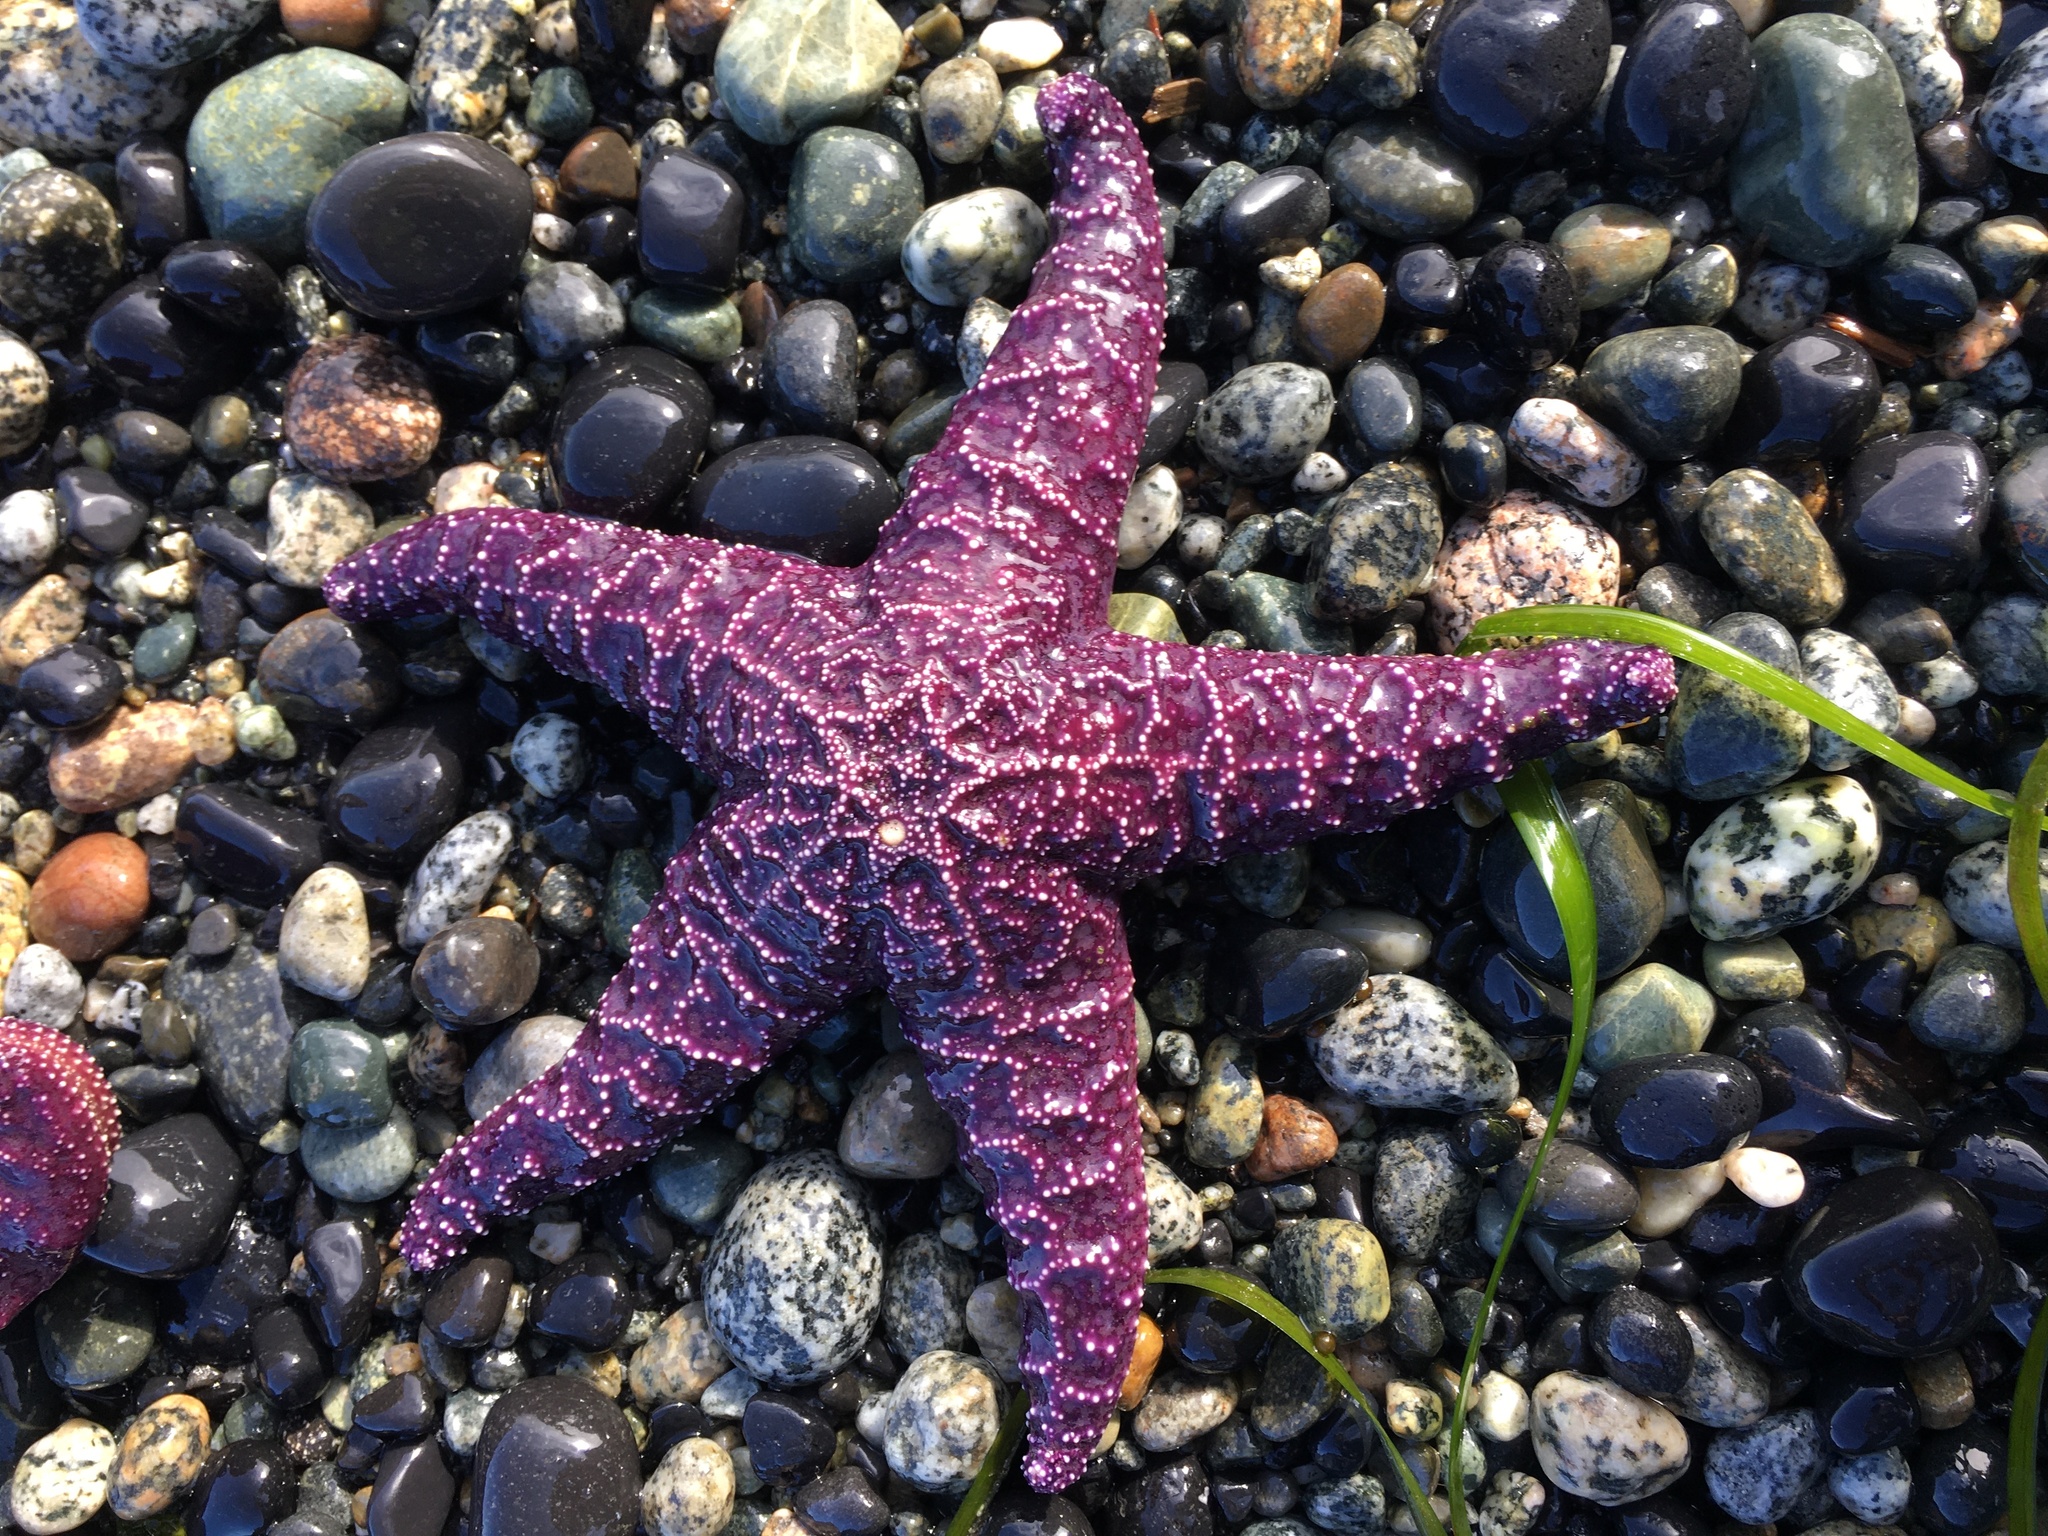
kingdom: Animalia
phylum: Echinodermata
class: Asteroidea
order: Forcipulatida
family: Asteriidae
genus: Pisaster
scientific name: Pisaster ochraceus
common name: Ochre stars
